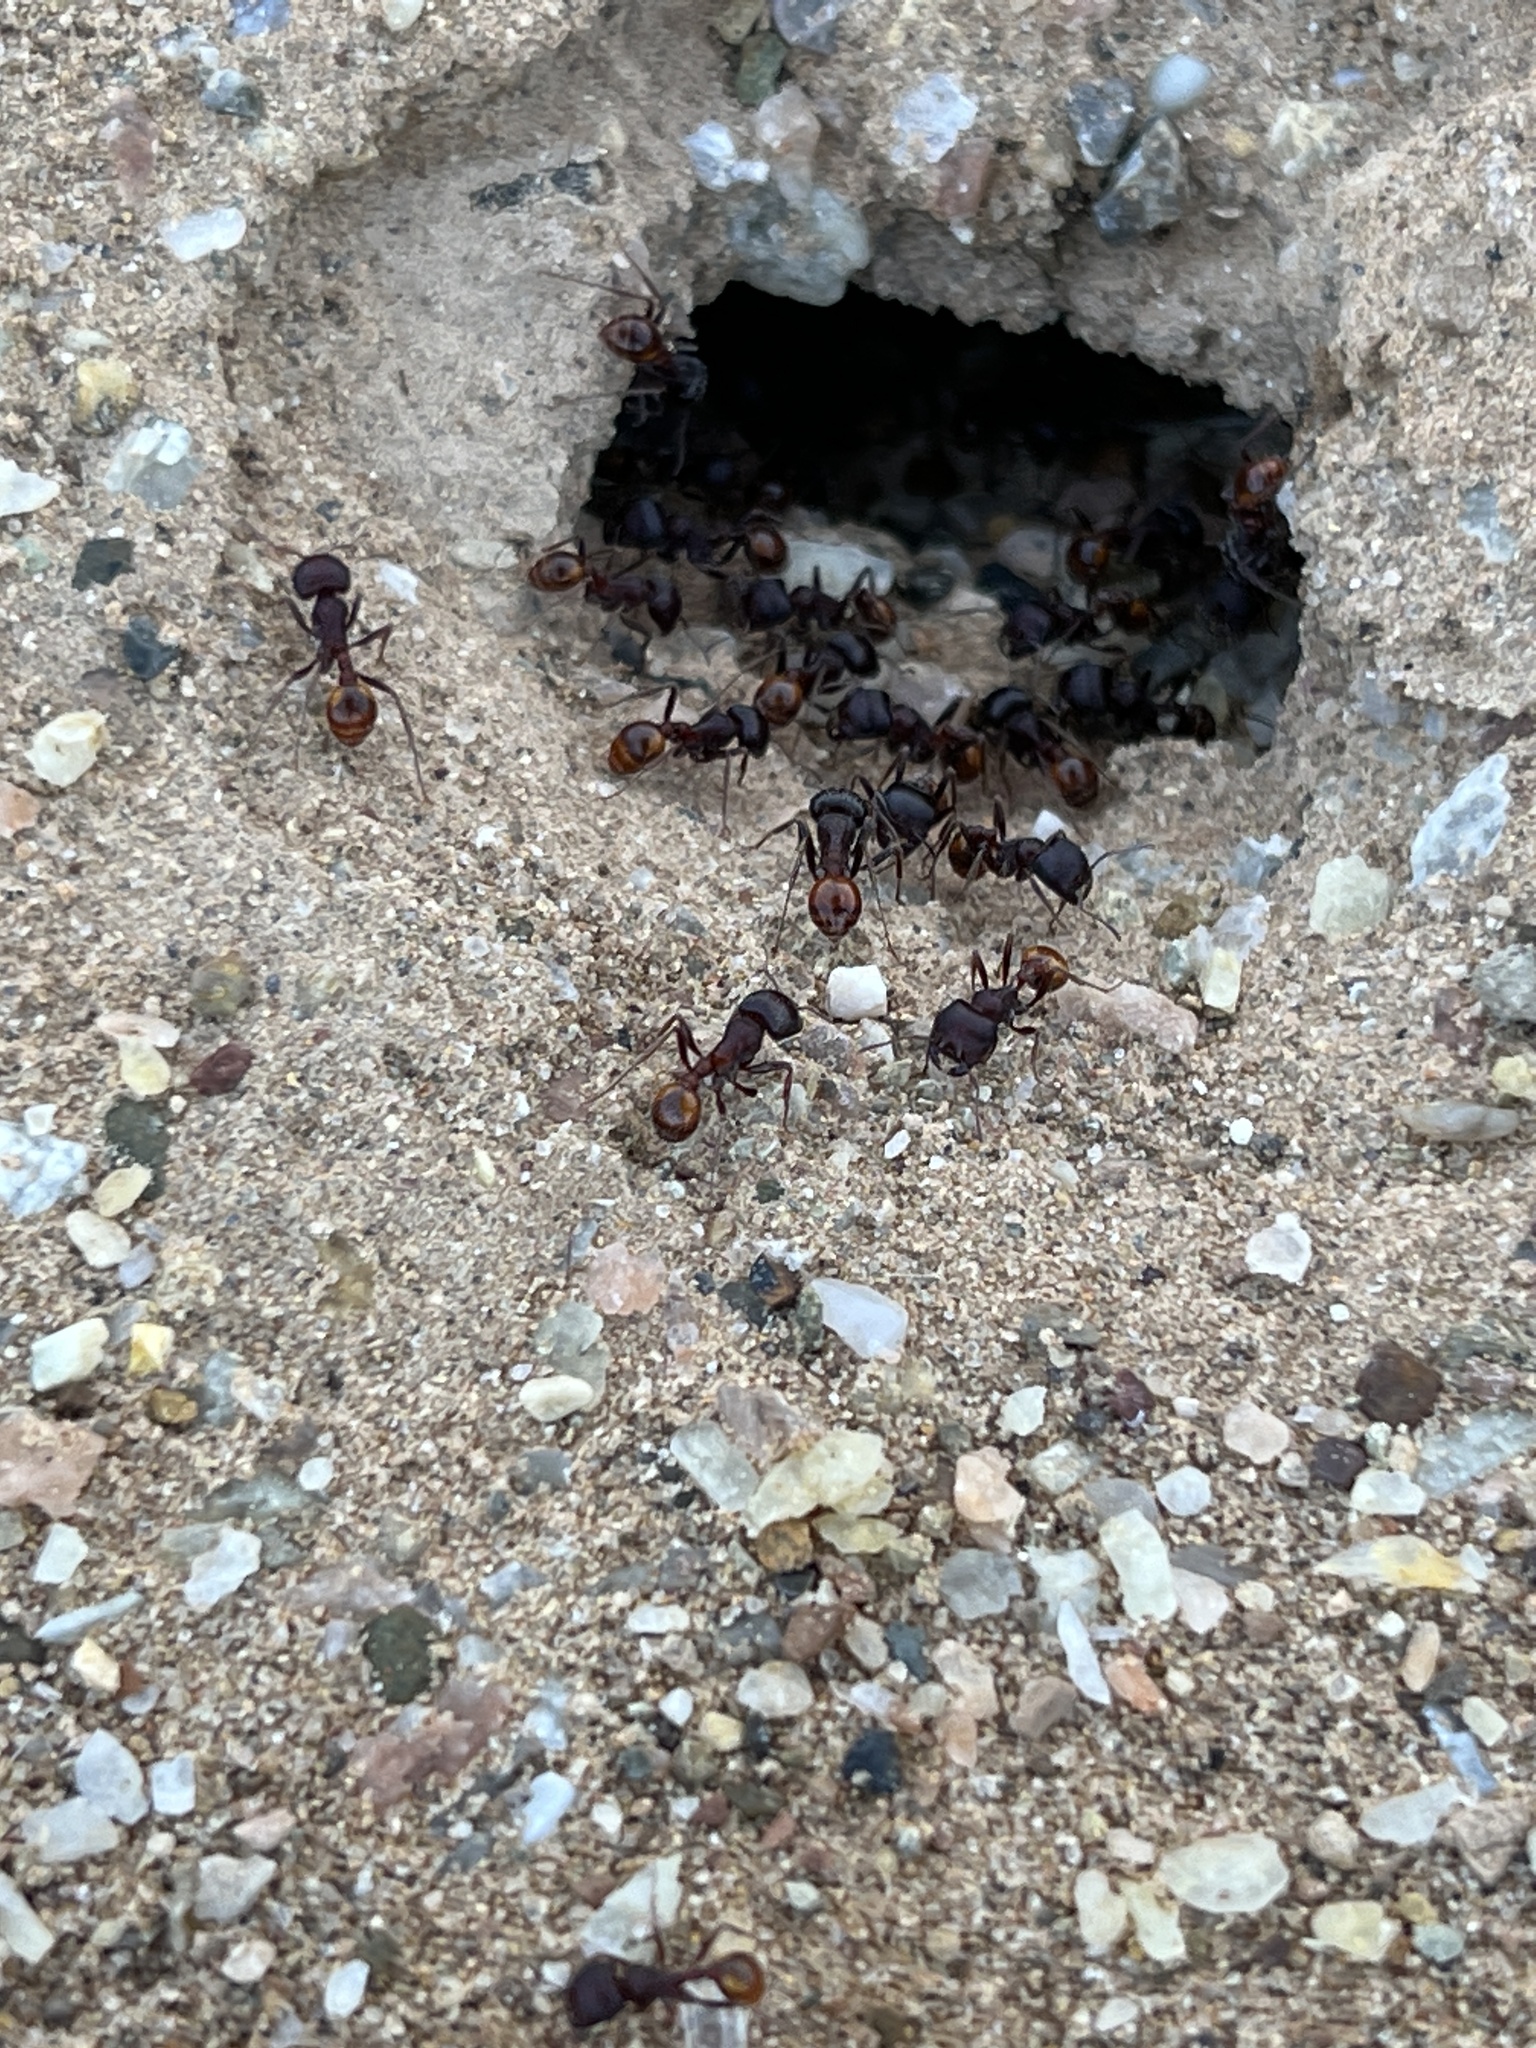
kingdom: Animalia
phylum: Arthropoda
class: Insecta
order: Hymenoptera
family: Formicidae
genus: Pogonomyrmex
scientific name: Pogonomyrmex rugosus
